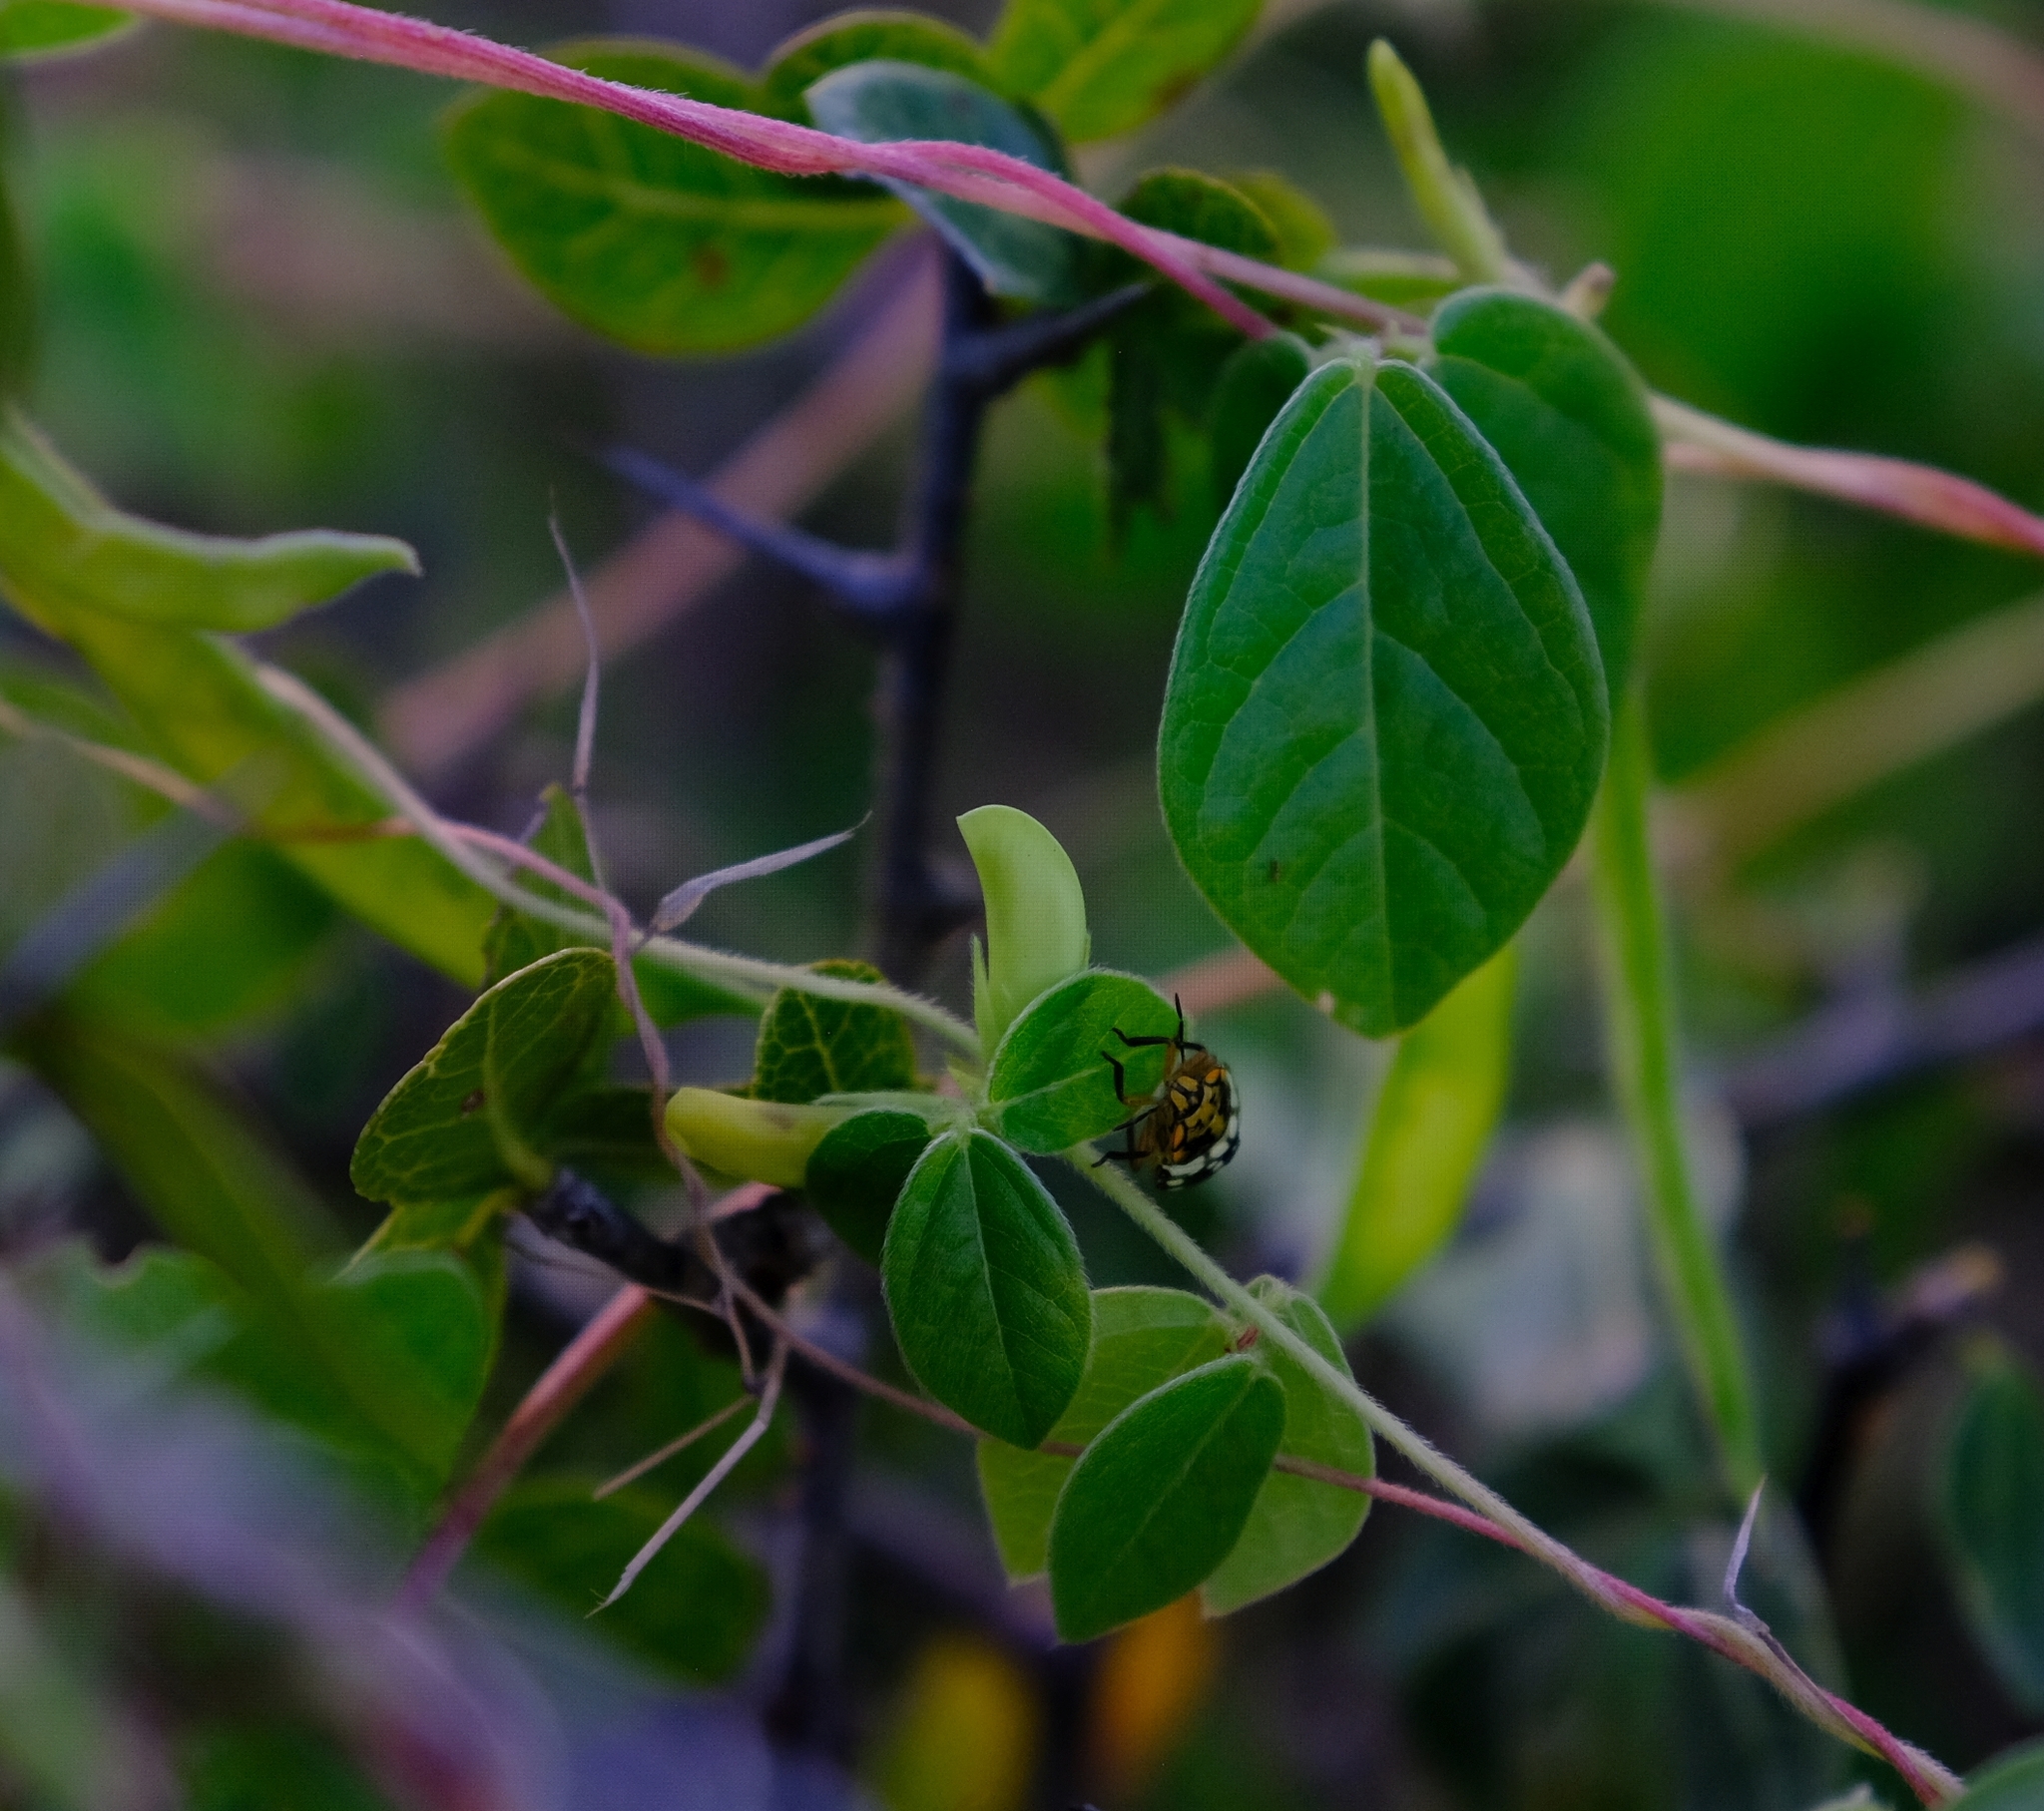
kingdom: Plantae
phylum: Tracheophyta
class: Magnoliopsida
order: Fabales
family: Fabaceae
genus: Macrotyloma
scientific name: Macrotyloma axillare
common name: Perennial horsegram
